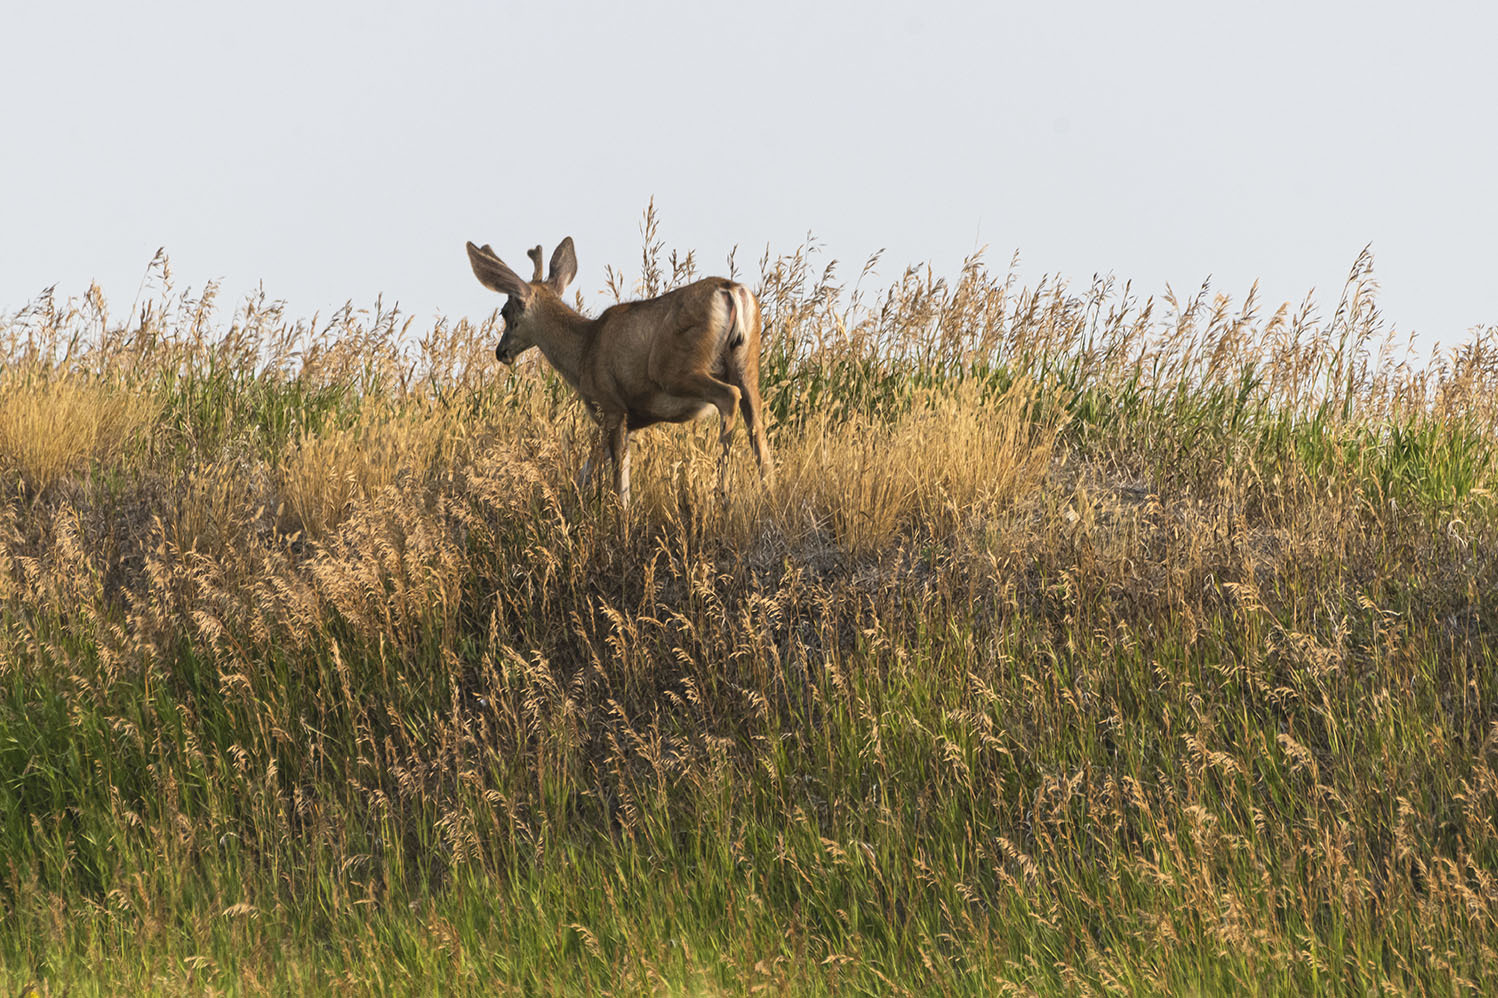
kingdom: Animalia
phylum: Chordata
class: Mammalia
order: Artiodactyla
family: Cervidae
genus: Odocoileus
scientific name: Odocoileus hemionus
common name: Mule deer
